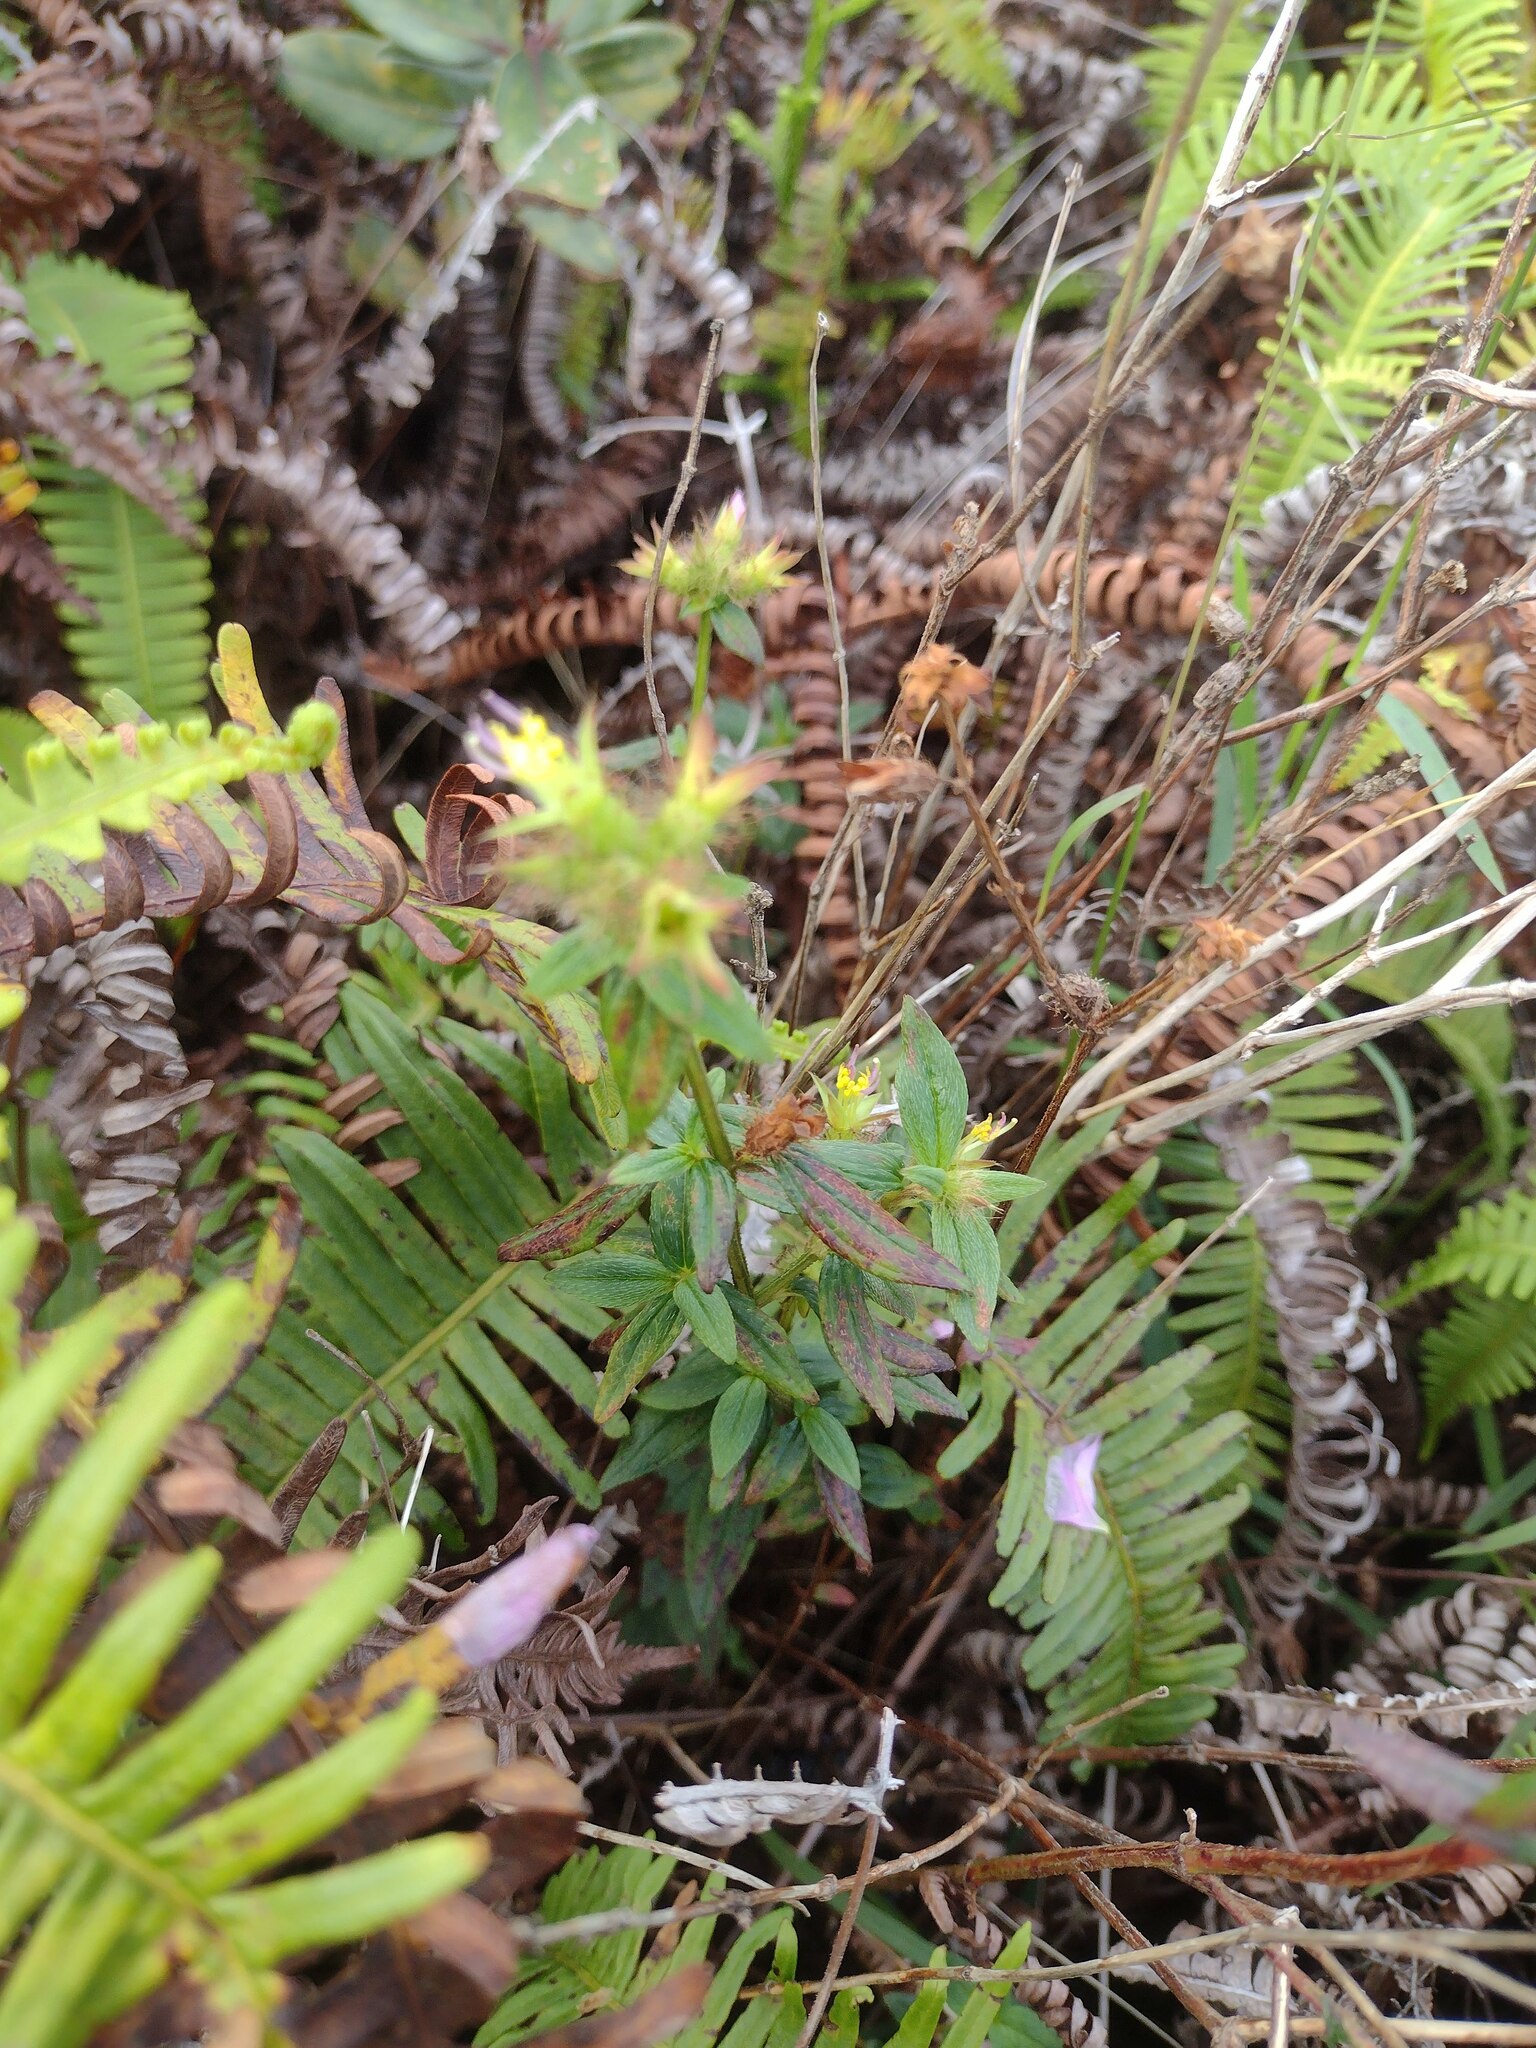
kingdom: Plantae
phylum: Tracheophyta
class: Magnoliopsida
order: Myrtales
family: Melastomataceae
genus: Pterolepis
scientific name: Pterolepis glomerata
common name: False meadowbeauty
